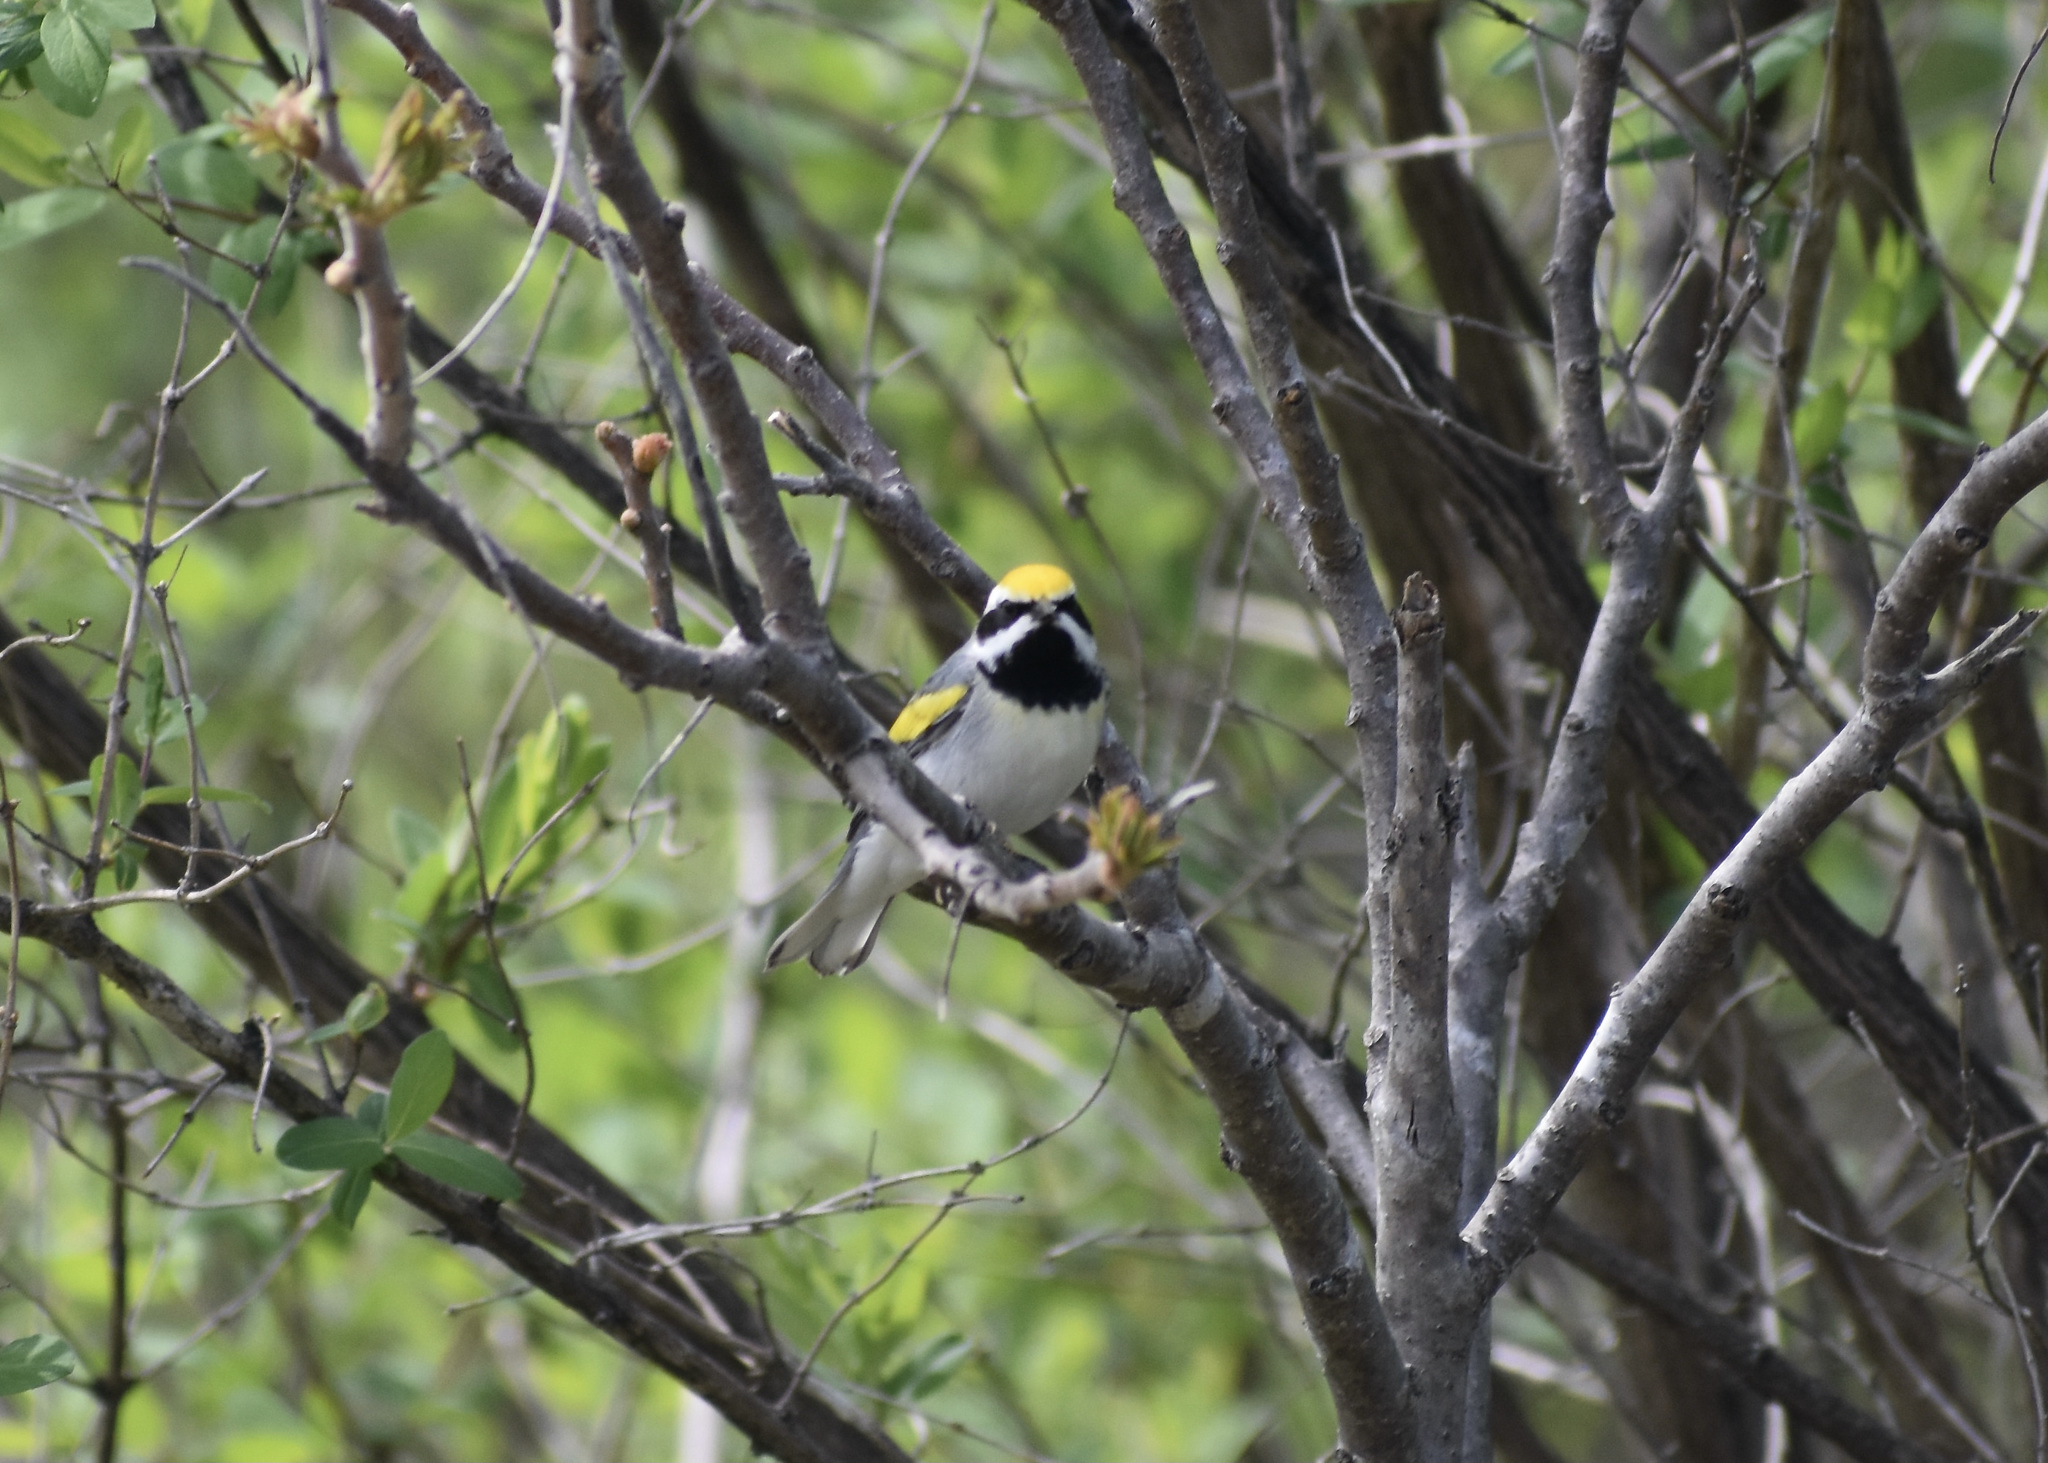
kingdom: Animalia
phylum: Chordata
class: Aves
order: Passeriformes
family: Parulidae
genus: Vermivora
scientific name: Vermivora chrysoptera
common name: Golden-winged warbler
